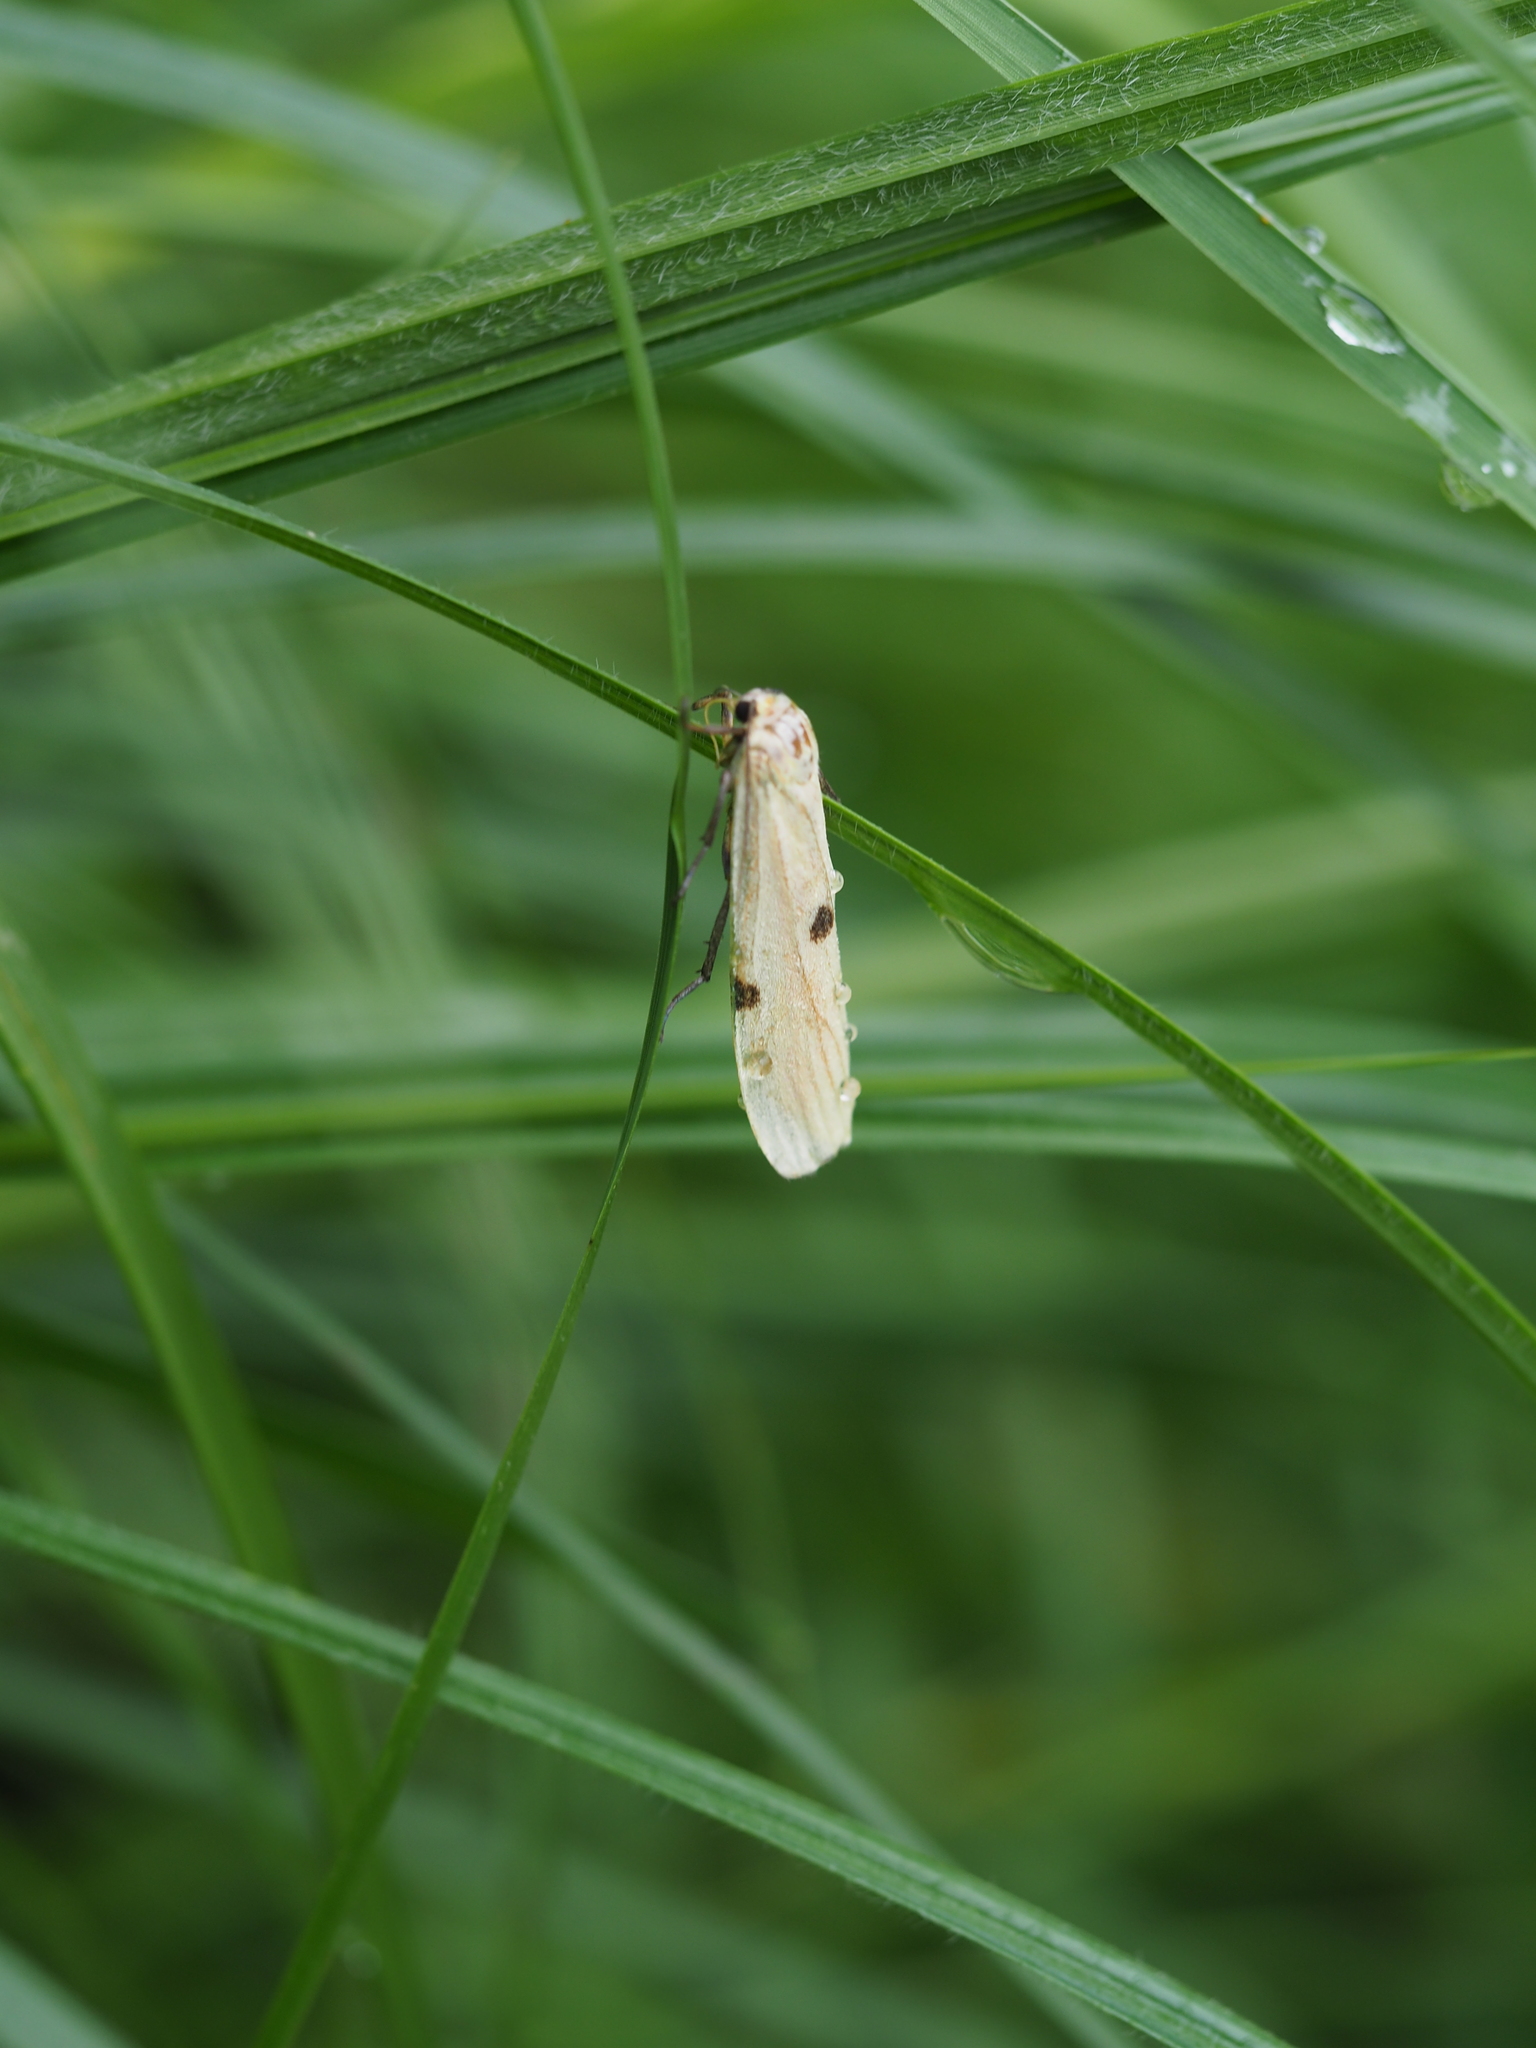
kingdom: Animalia
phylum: Arthropoda
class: Insecta
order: Lepidoptera
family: Erebidae
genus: Lithosia
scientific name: Lithosia quadra
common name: Four-spotted footman
